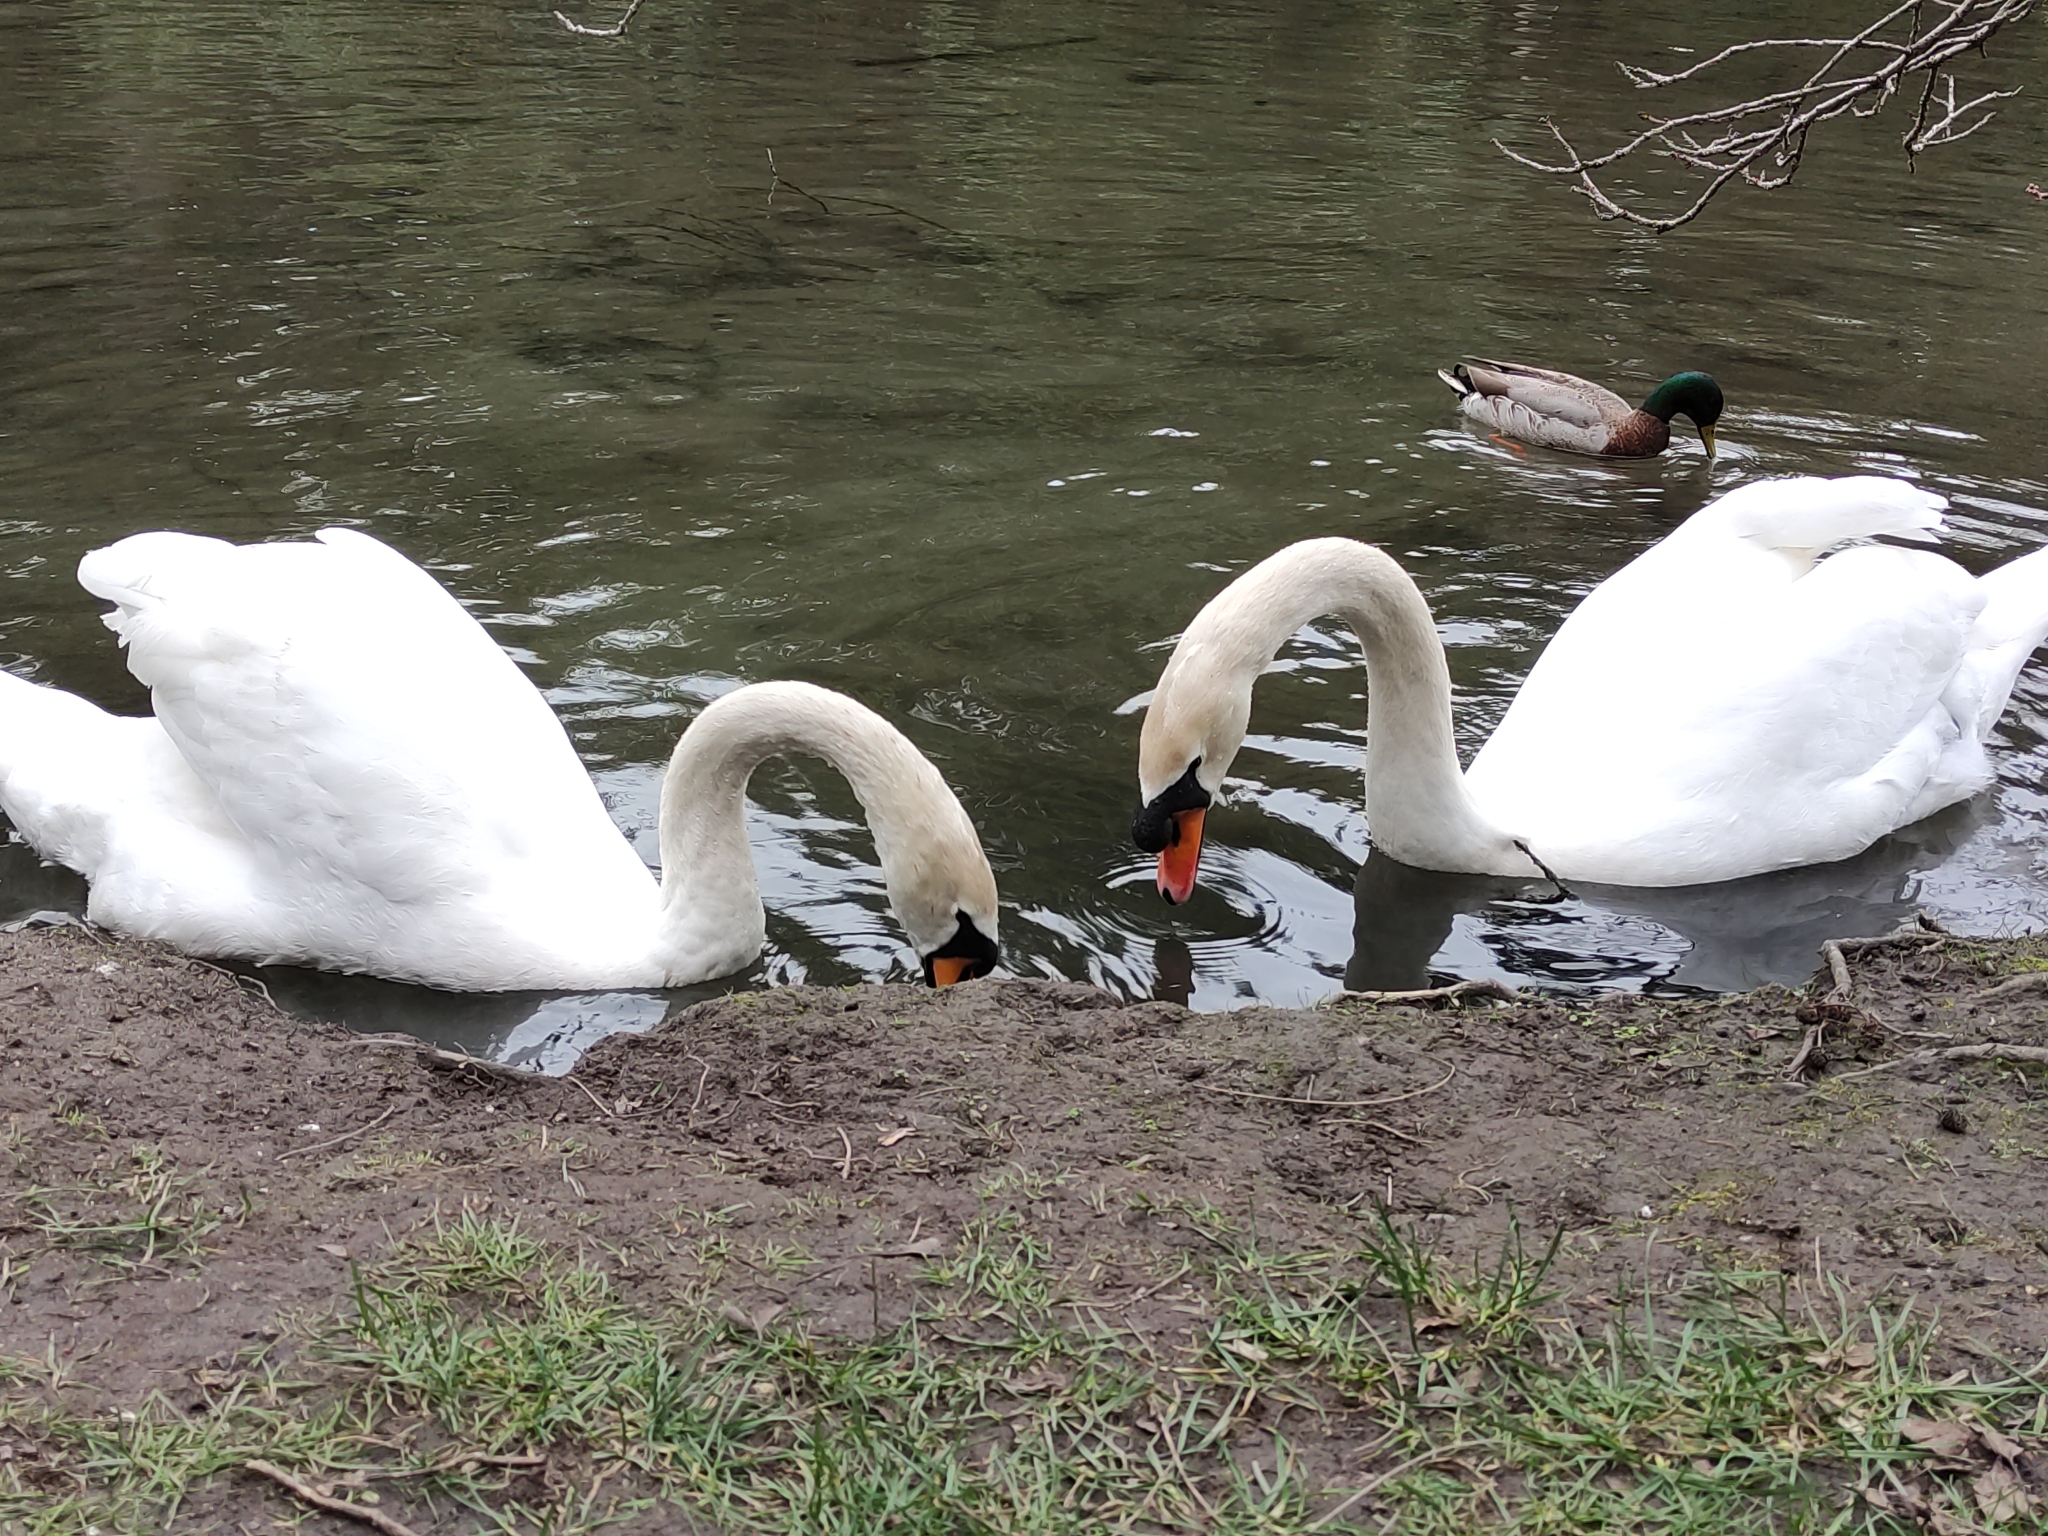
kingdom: Animalia
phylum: Chordata
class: Aves
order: Anseriformes
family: Anatidae
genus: Cygnus
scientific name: Cygnus olor
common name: Mute swan
